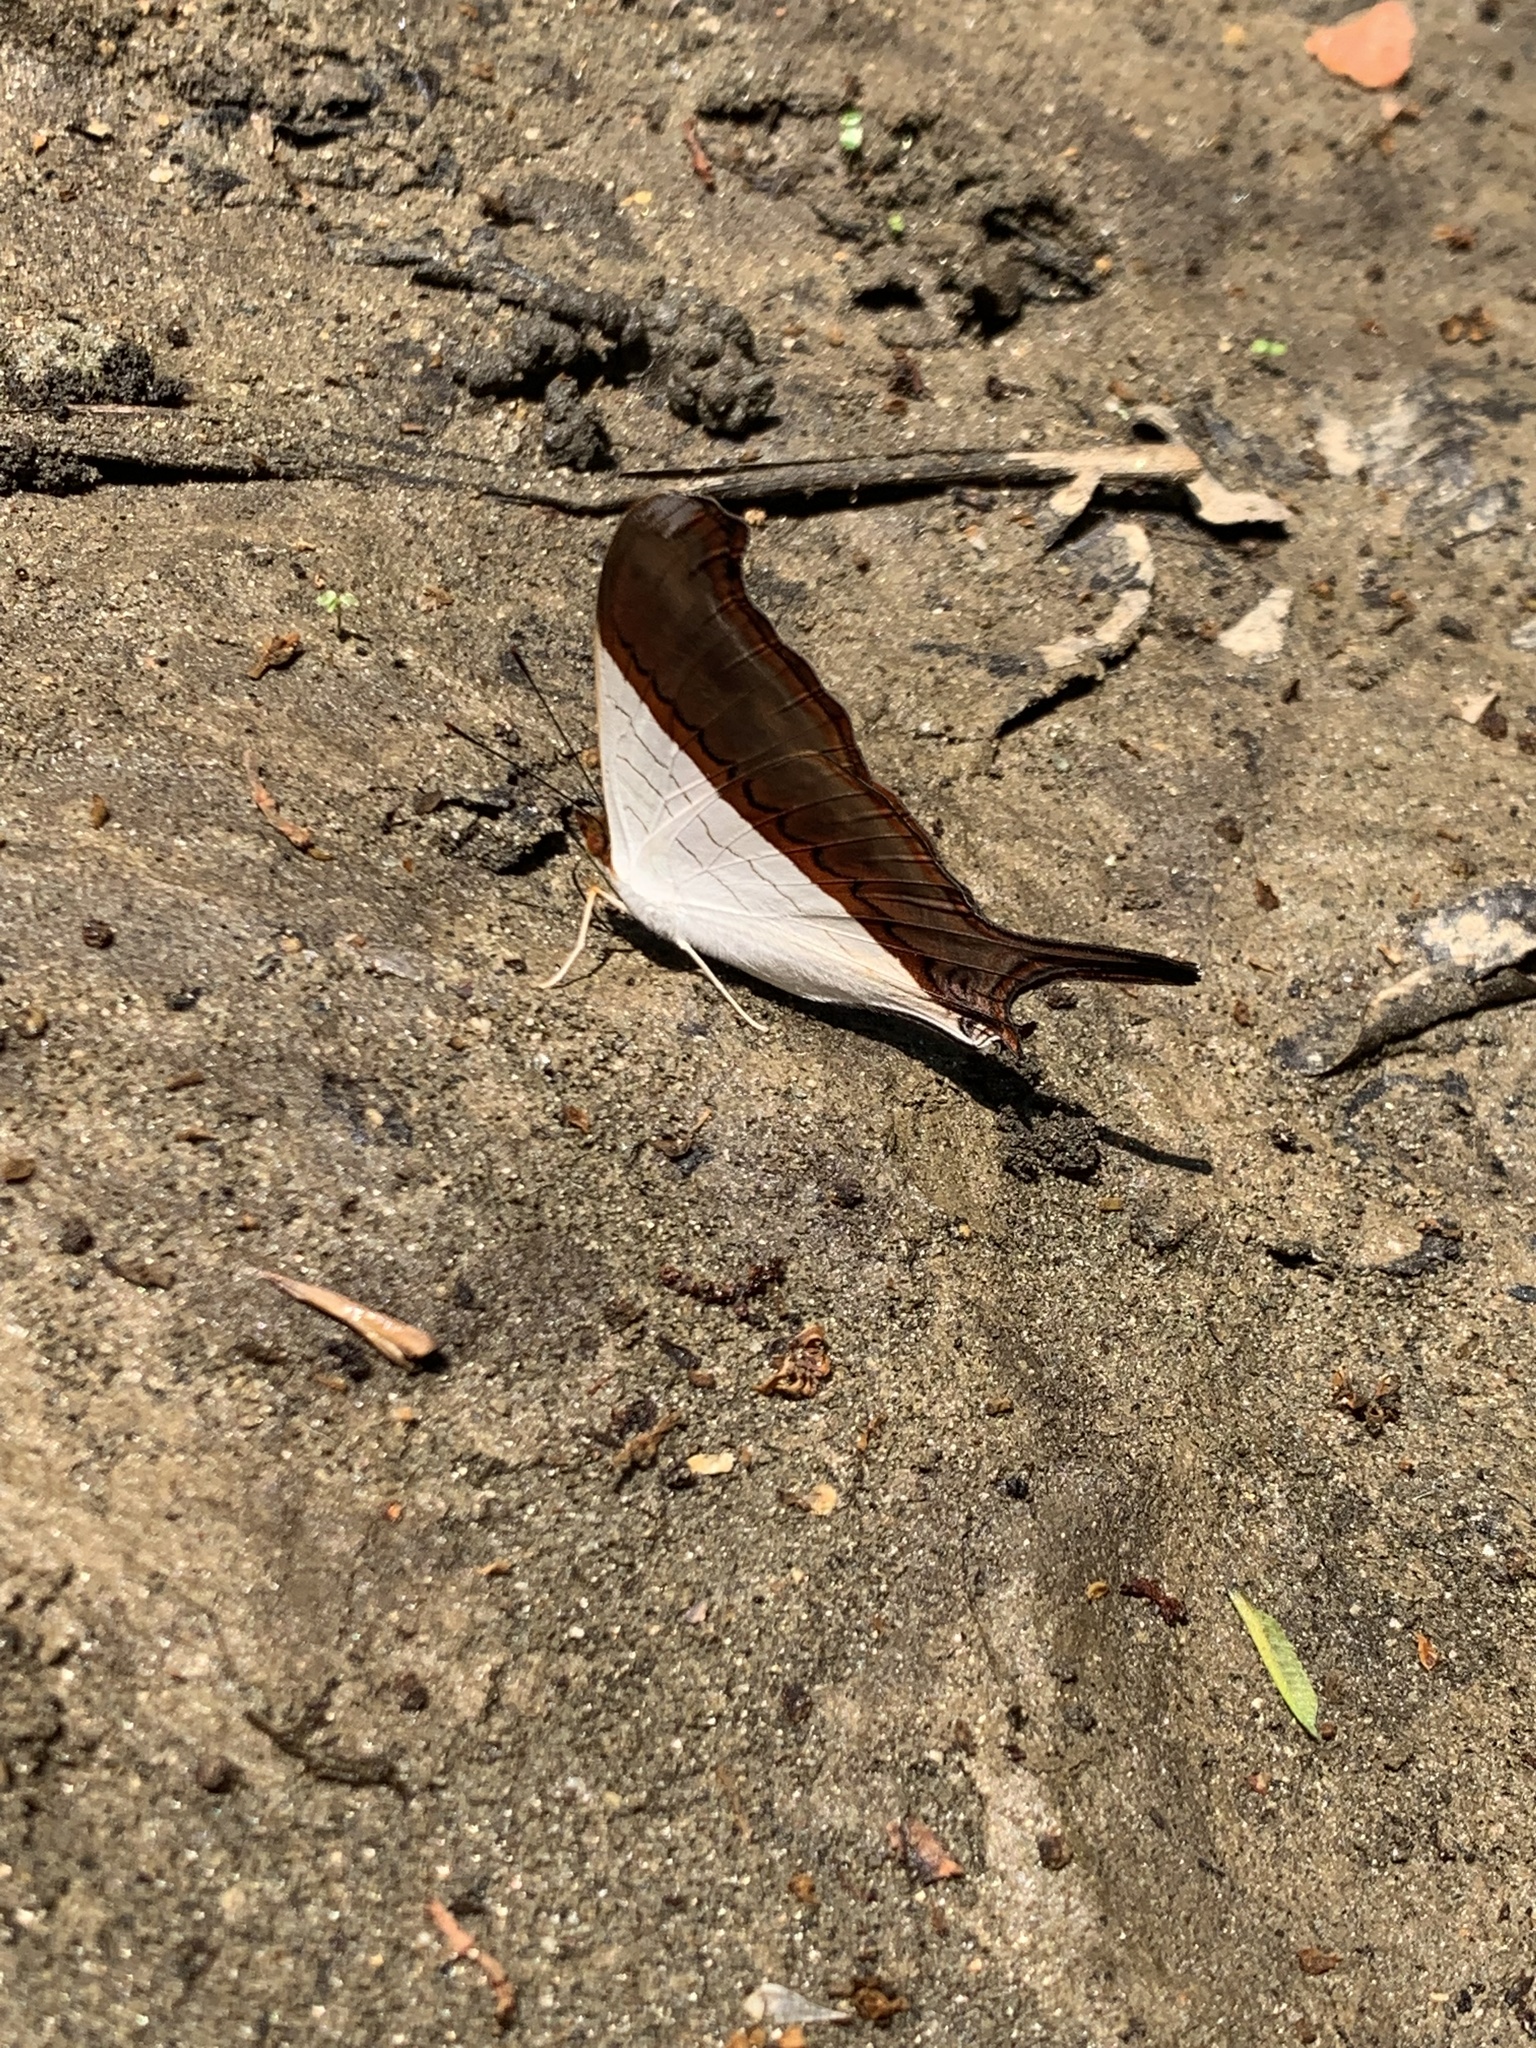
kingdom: Animalia
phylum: Arthropoda
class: Insecta
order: Lepidoptera
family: Nymphalidae
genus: Marpesia
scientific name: Marpesia zerynthia
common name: Waiter daggerwing
